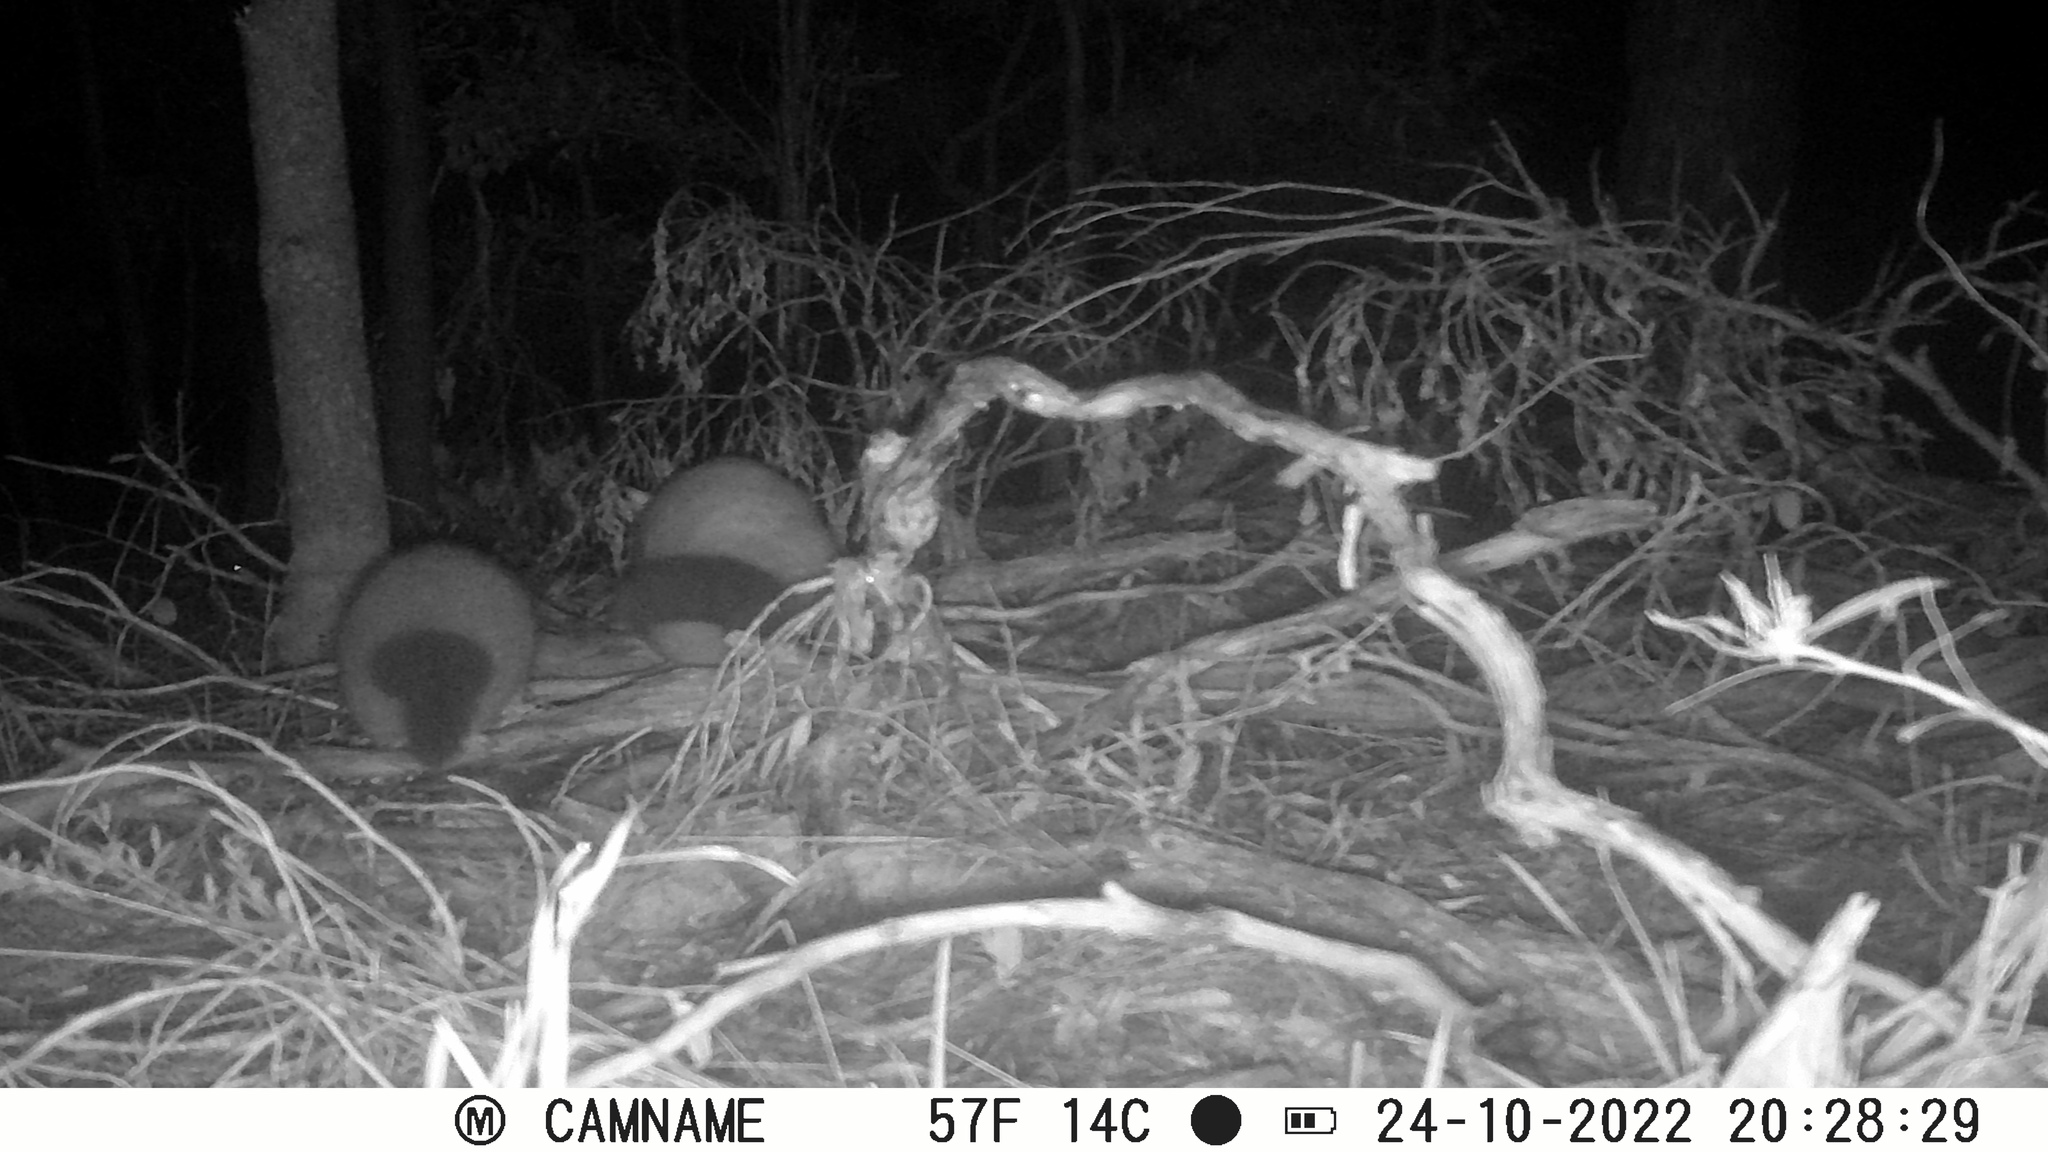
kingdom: Animalia
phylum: Chordata
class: Mammalia
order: Diprotodontia
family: Phalangeridae
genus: Trichosurus
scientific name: Trichosurus vulpecula
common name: Common brushtail
